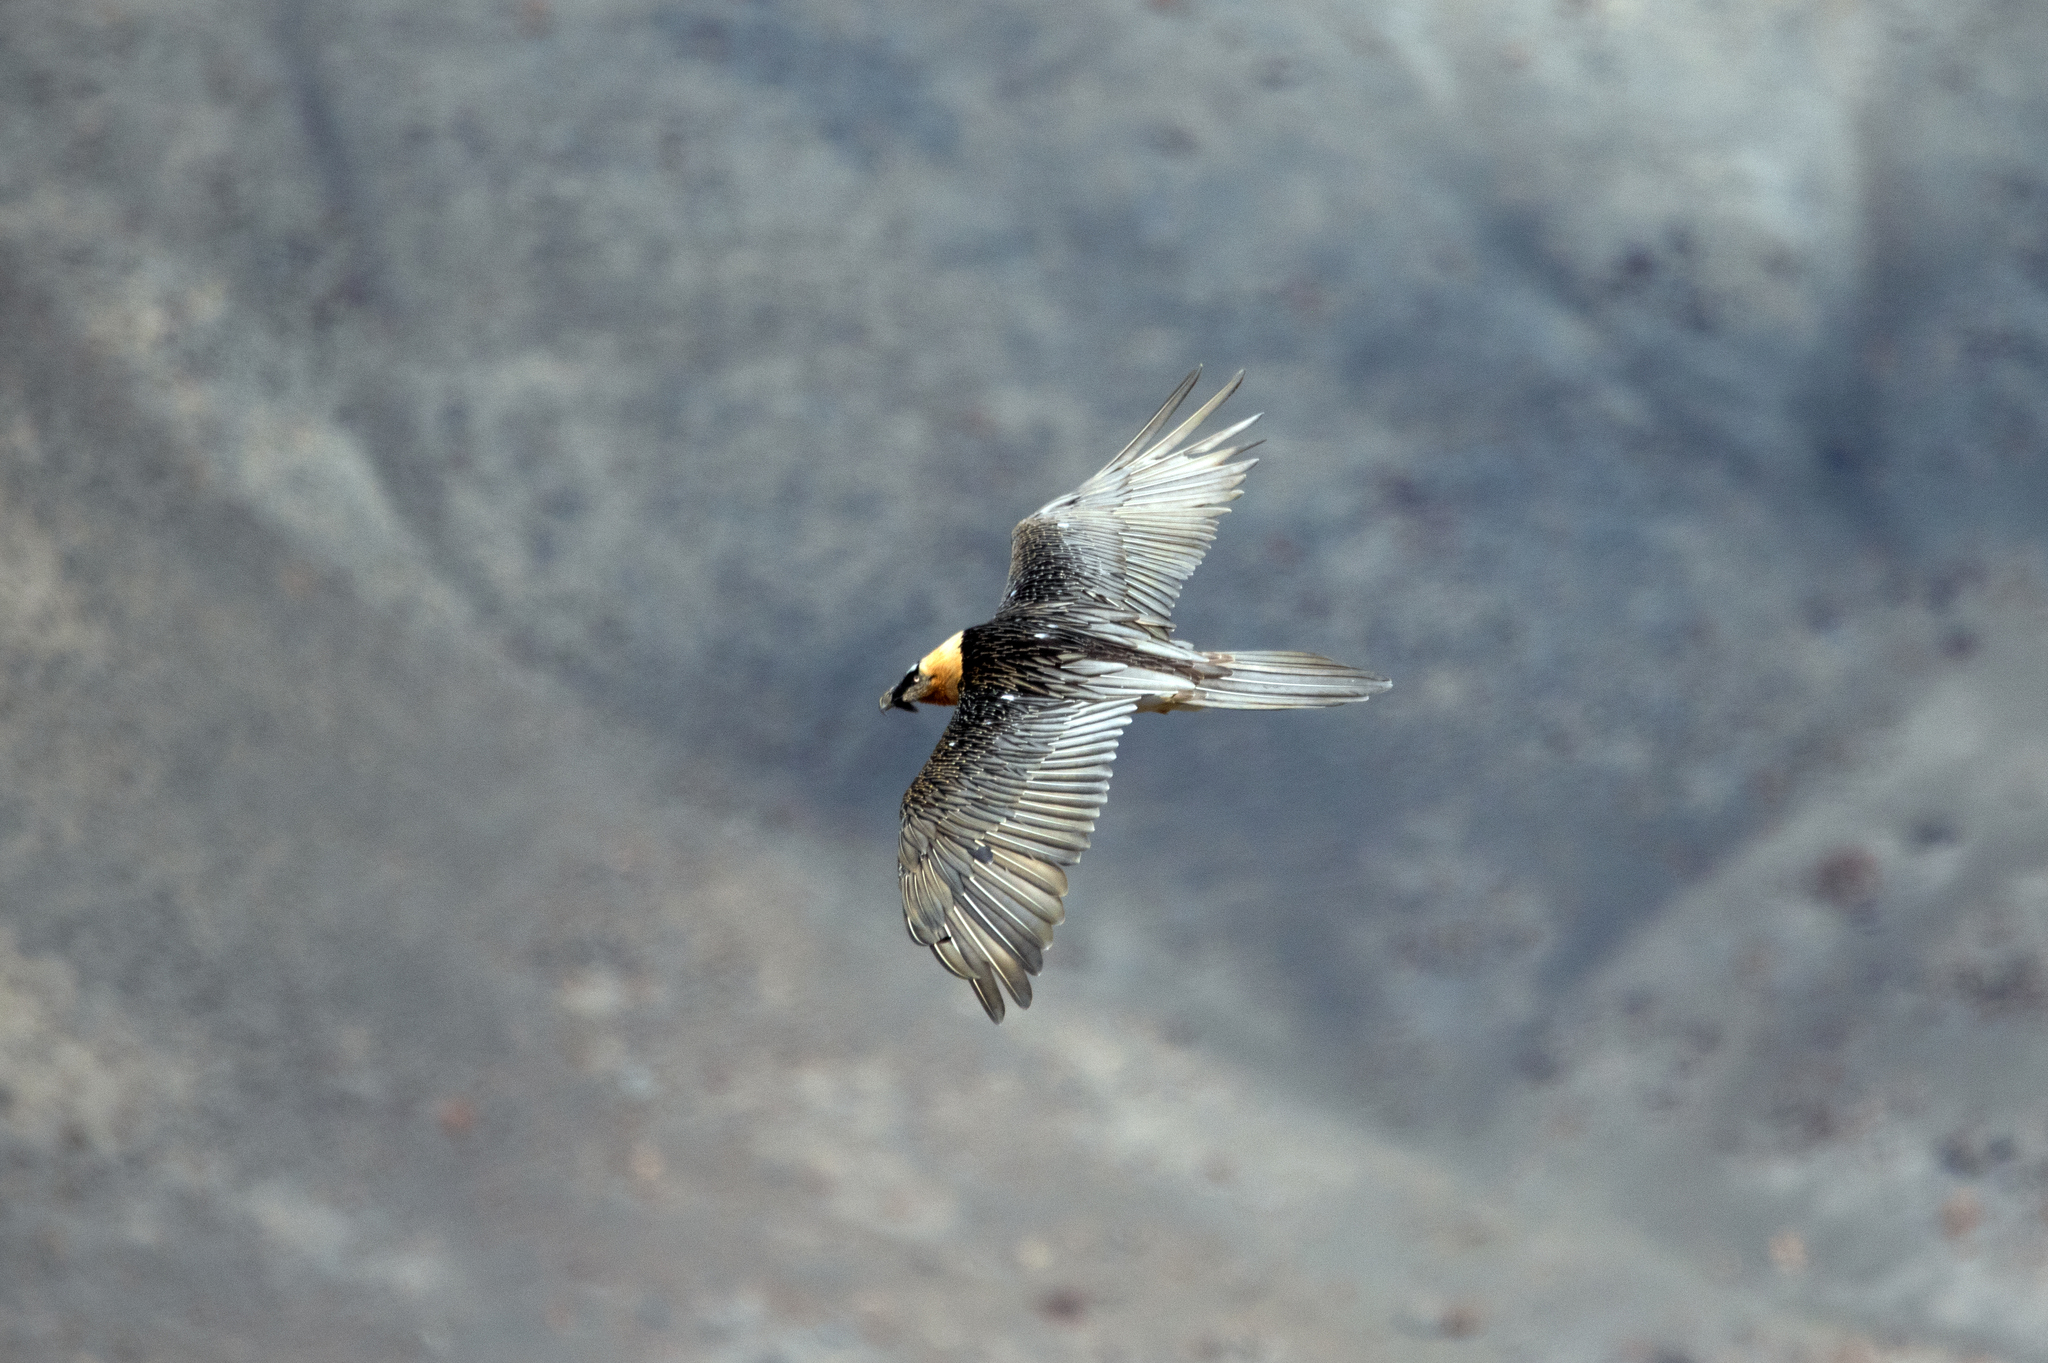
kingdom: Animalia
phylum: Chordata
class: Aves
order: Accipitriformes
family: Accipitridae
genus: Gypaetus
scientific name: Gypaetus barbatus
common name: Bearded vulture
